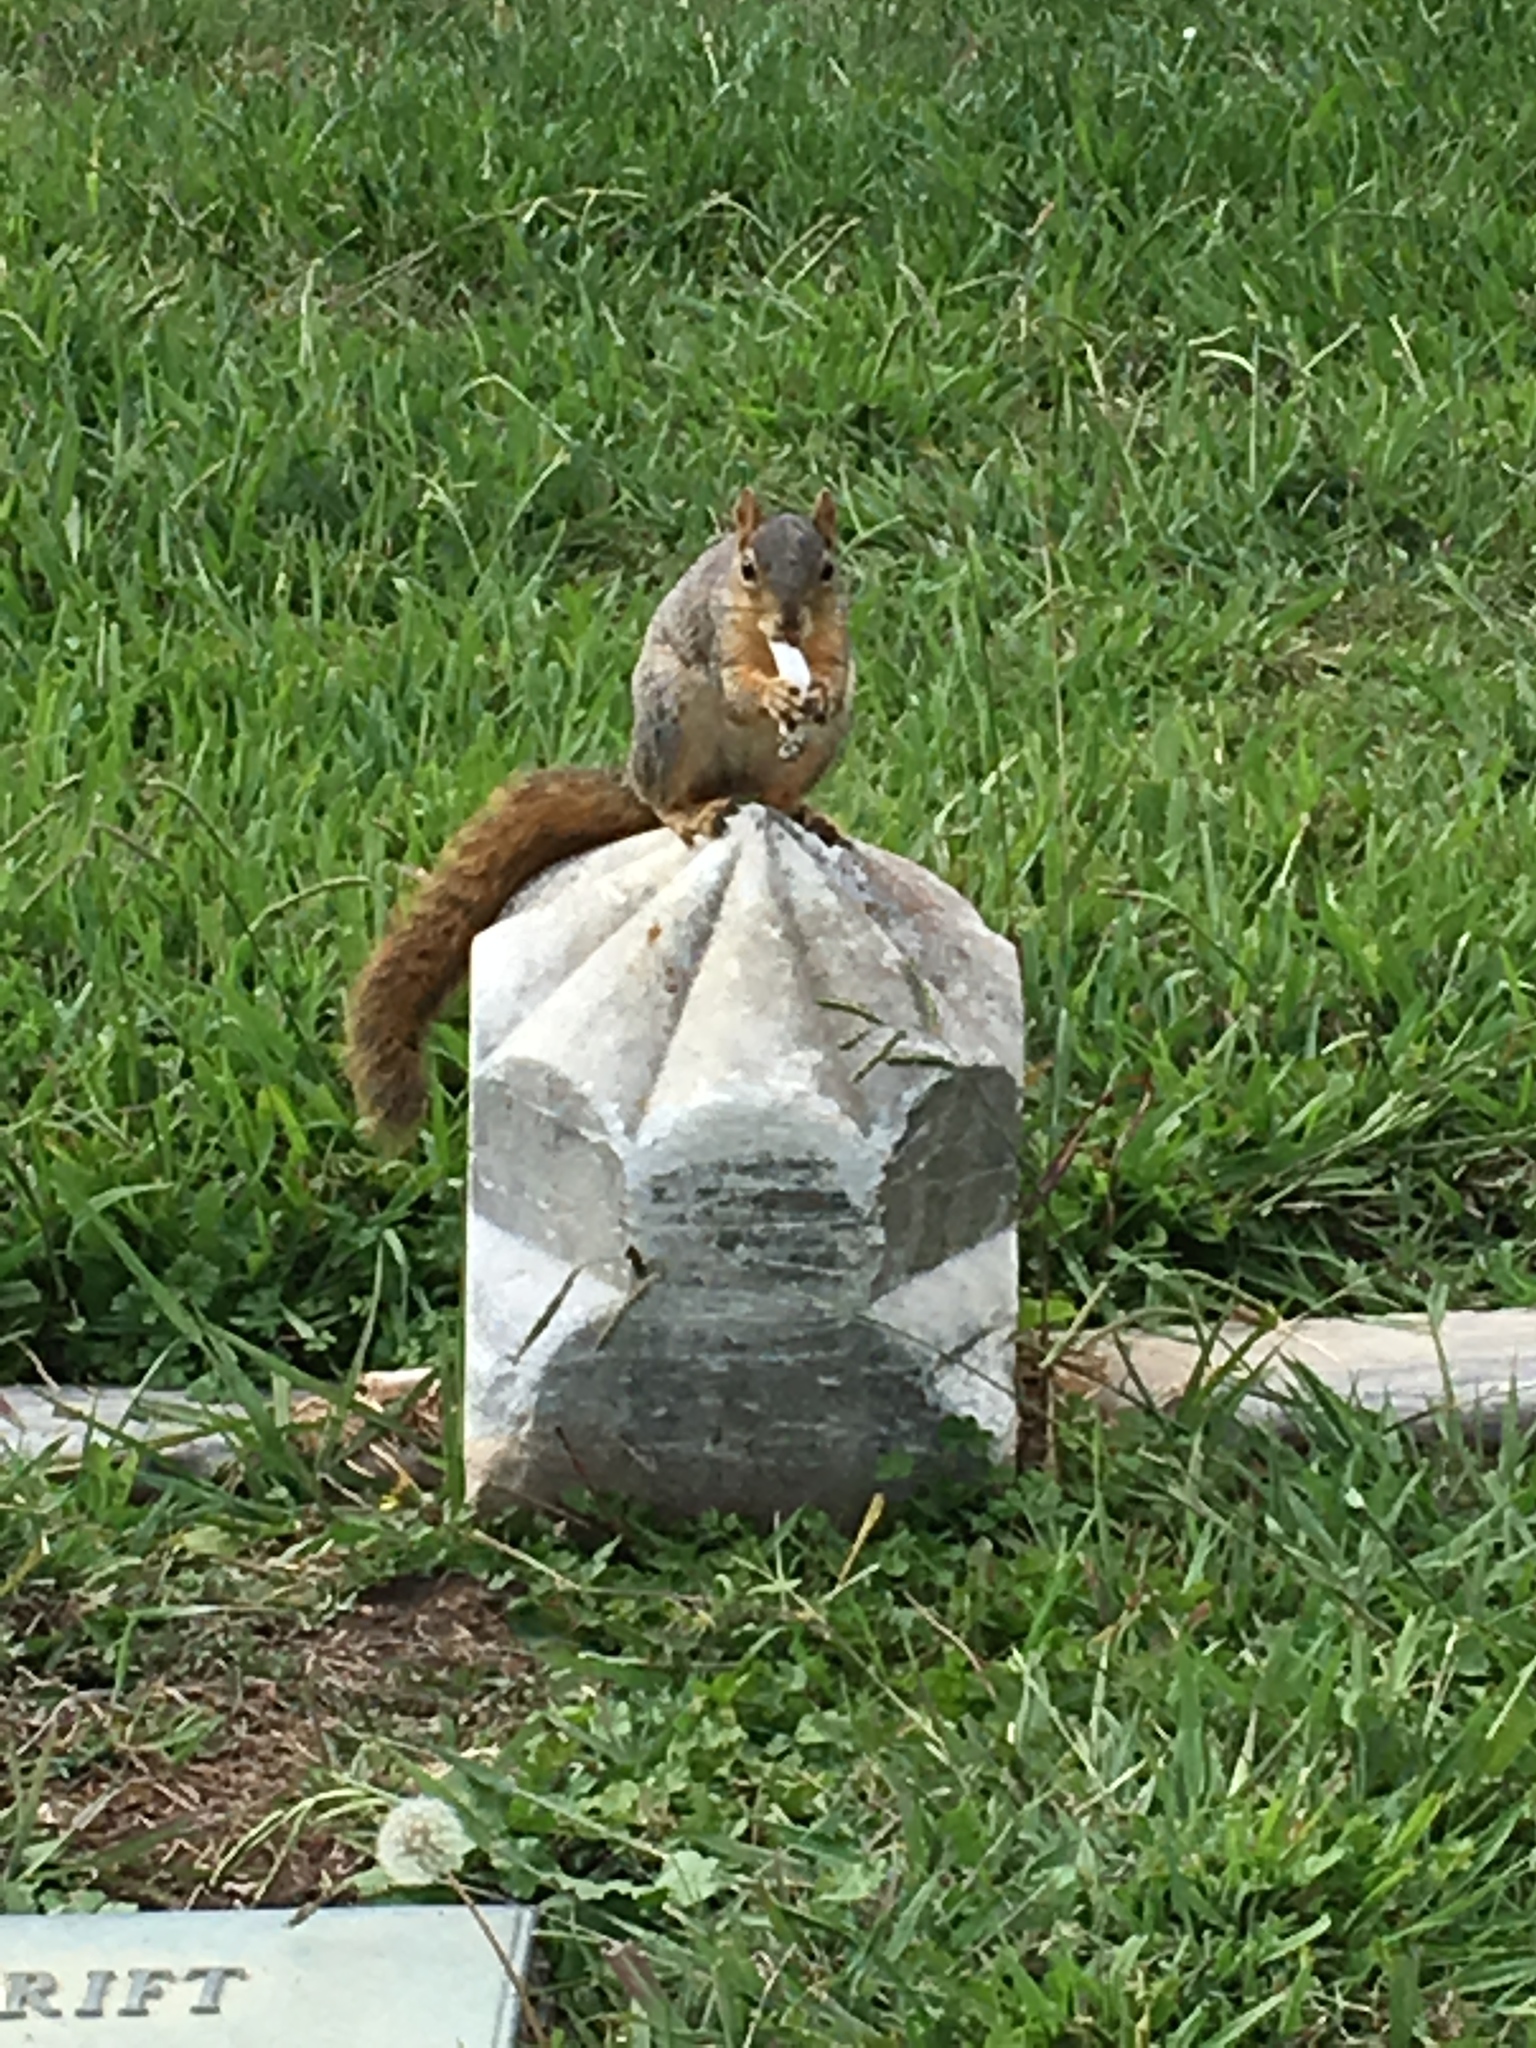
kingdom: Animalia
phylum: Chordata
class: Mammalia
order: Rodentia
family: Sciuridae
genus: Sciurus
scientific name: Sciurus niger
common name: Fox squirrel
